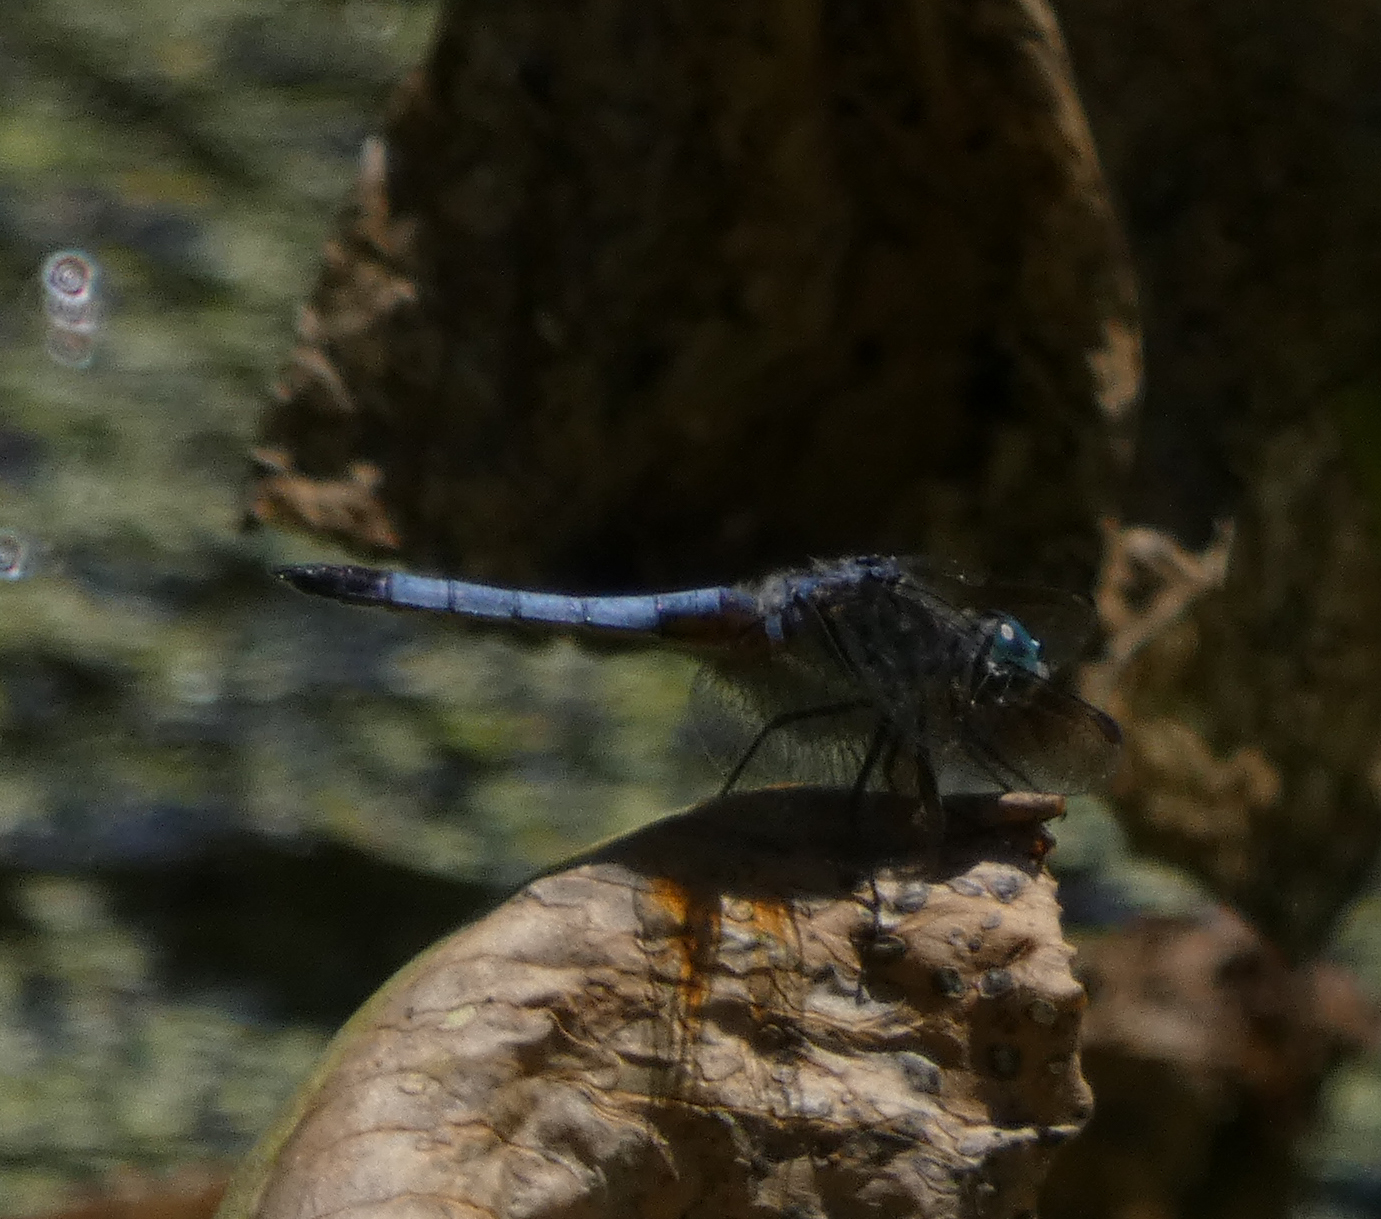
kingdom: Animalia
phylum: Arthropoda
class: Insecta
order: Odonata
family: Libellulidae
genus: Pachydiplax
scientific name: Pachydiplax longipennis
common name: Blue dasher
